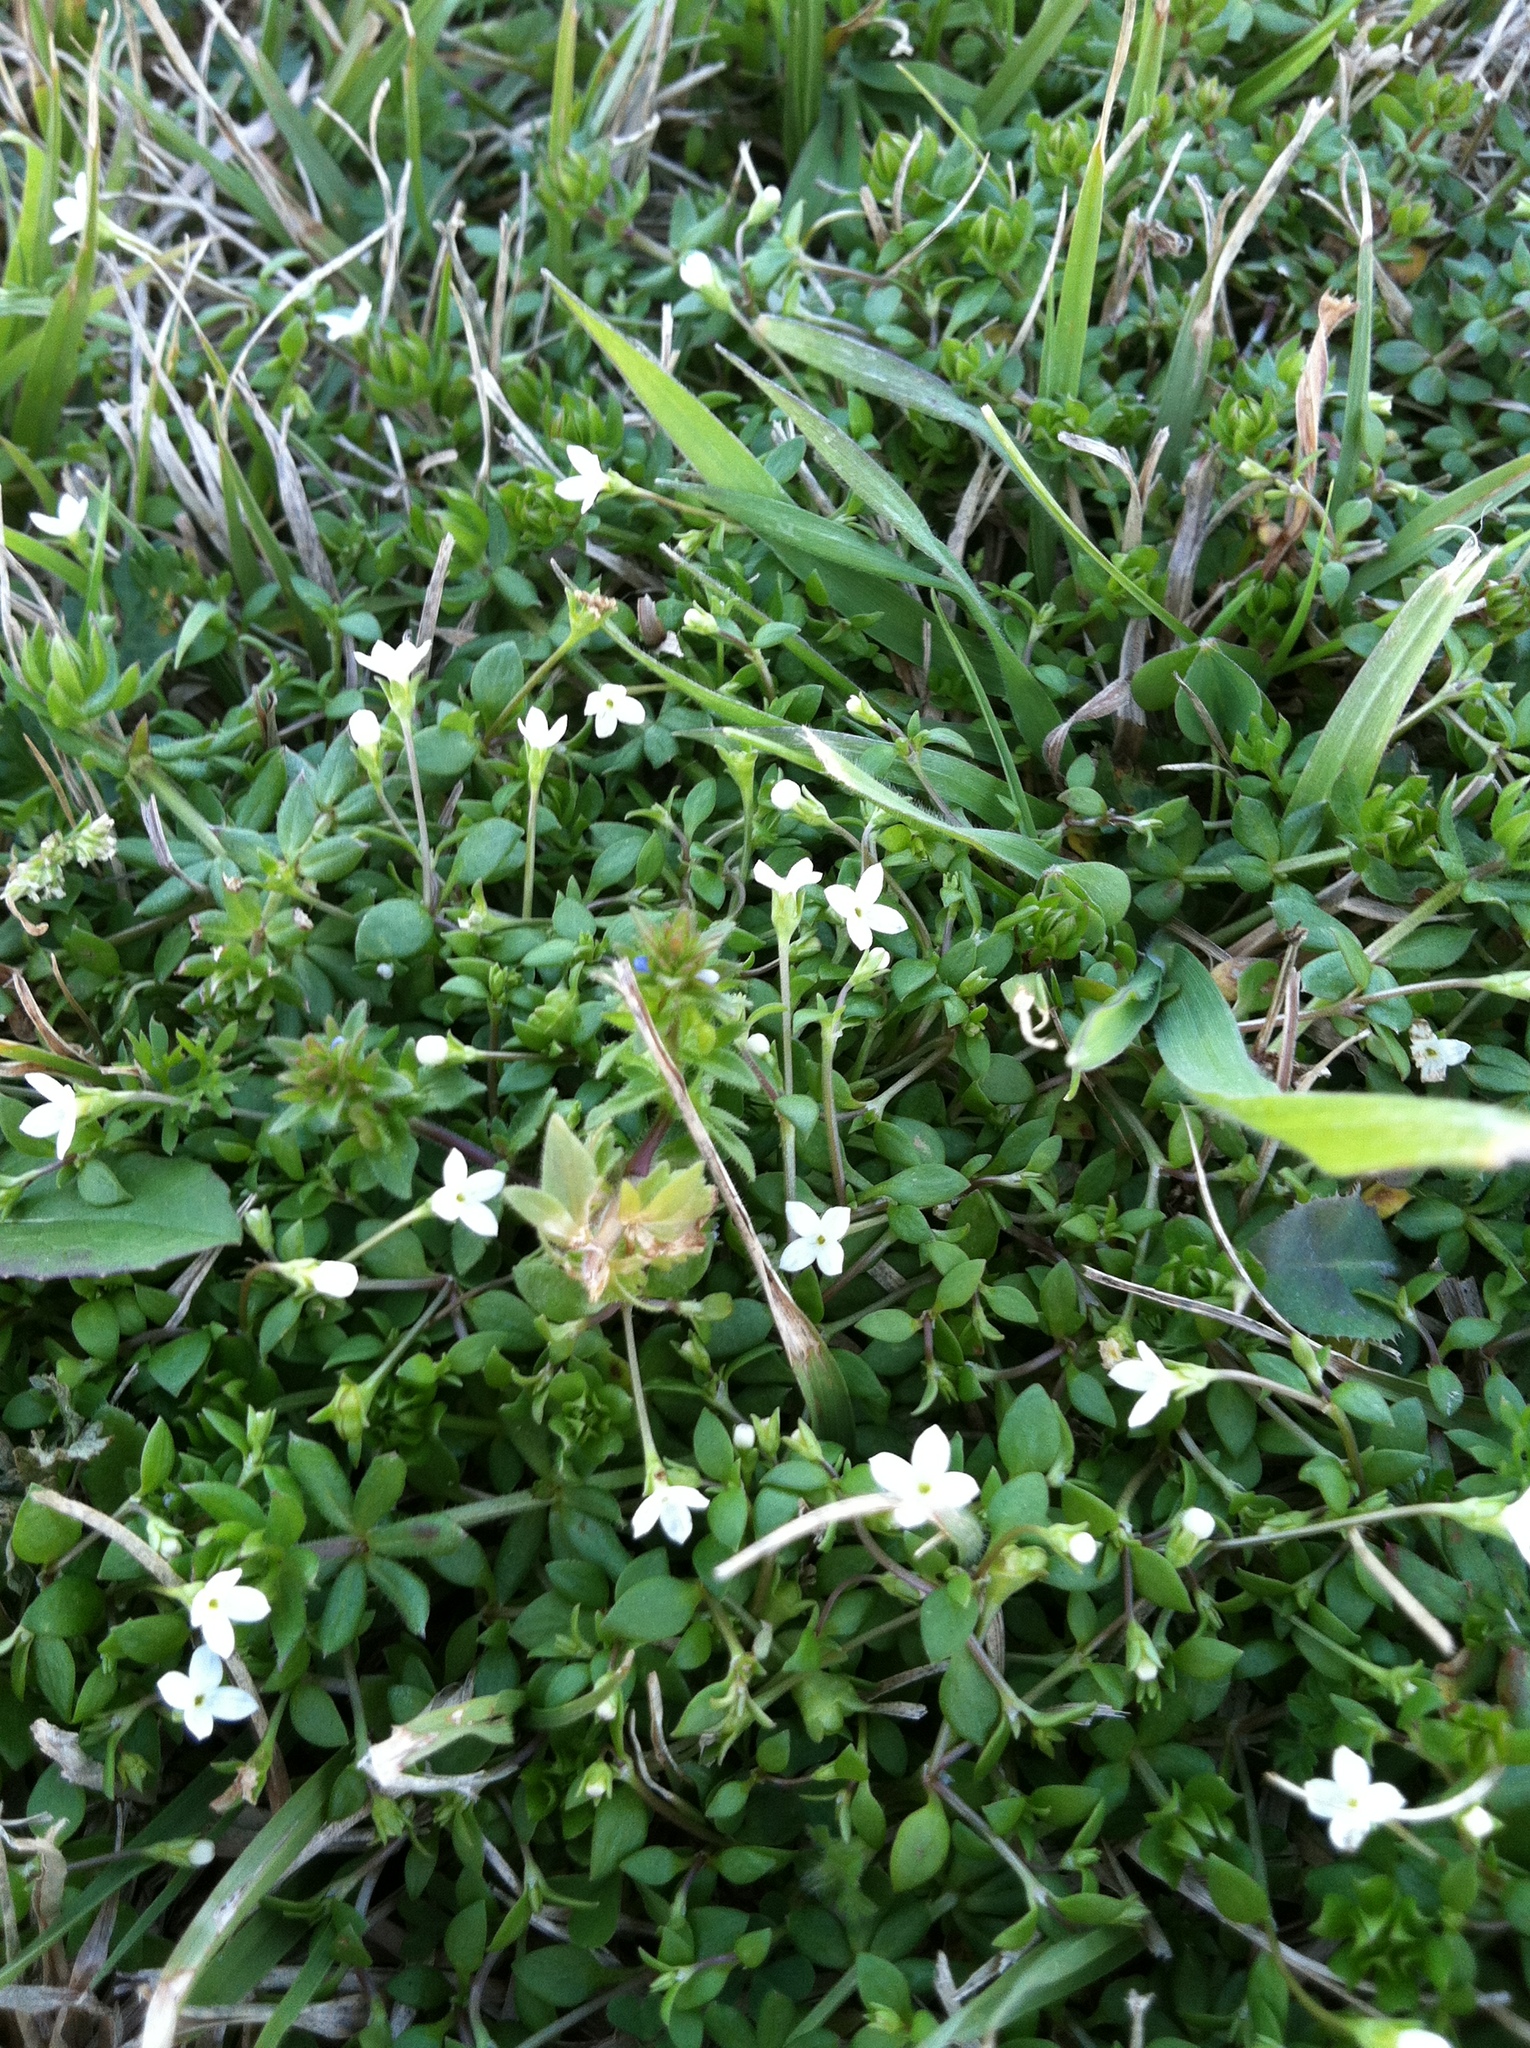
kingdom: Plantae
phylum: Tracheophyta
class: Magnoliopsida
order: Gentianales
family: Rubiaceae
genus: Houstonia
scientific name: Houstonia micrantha
